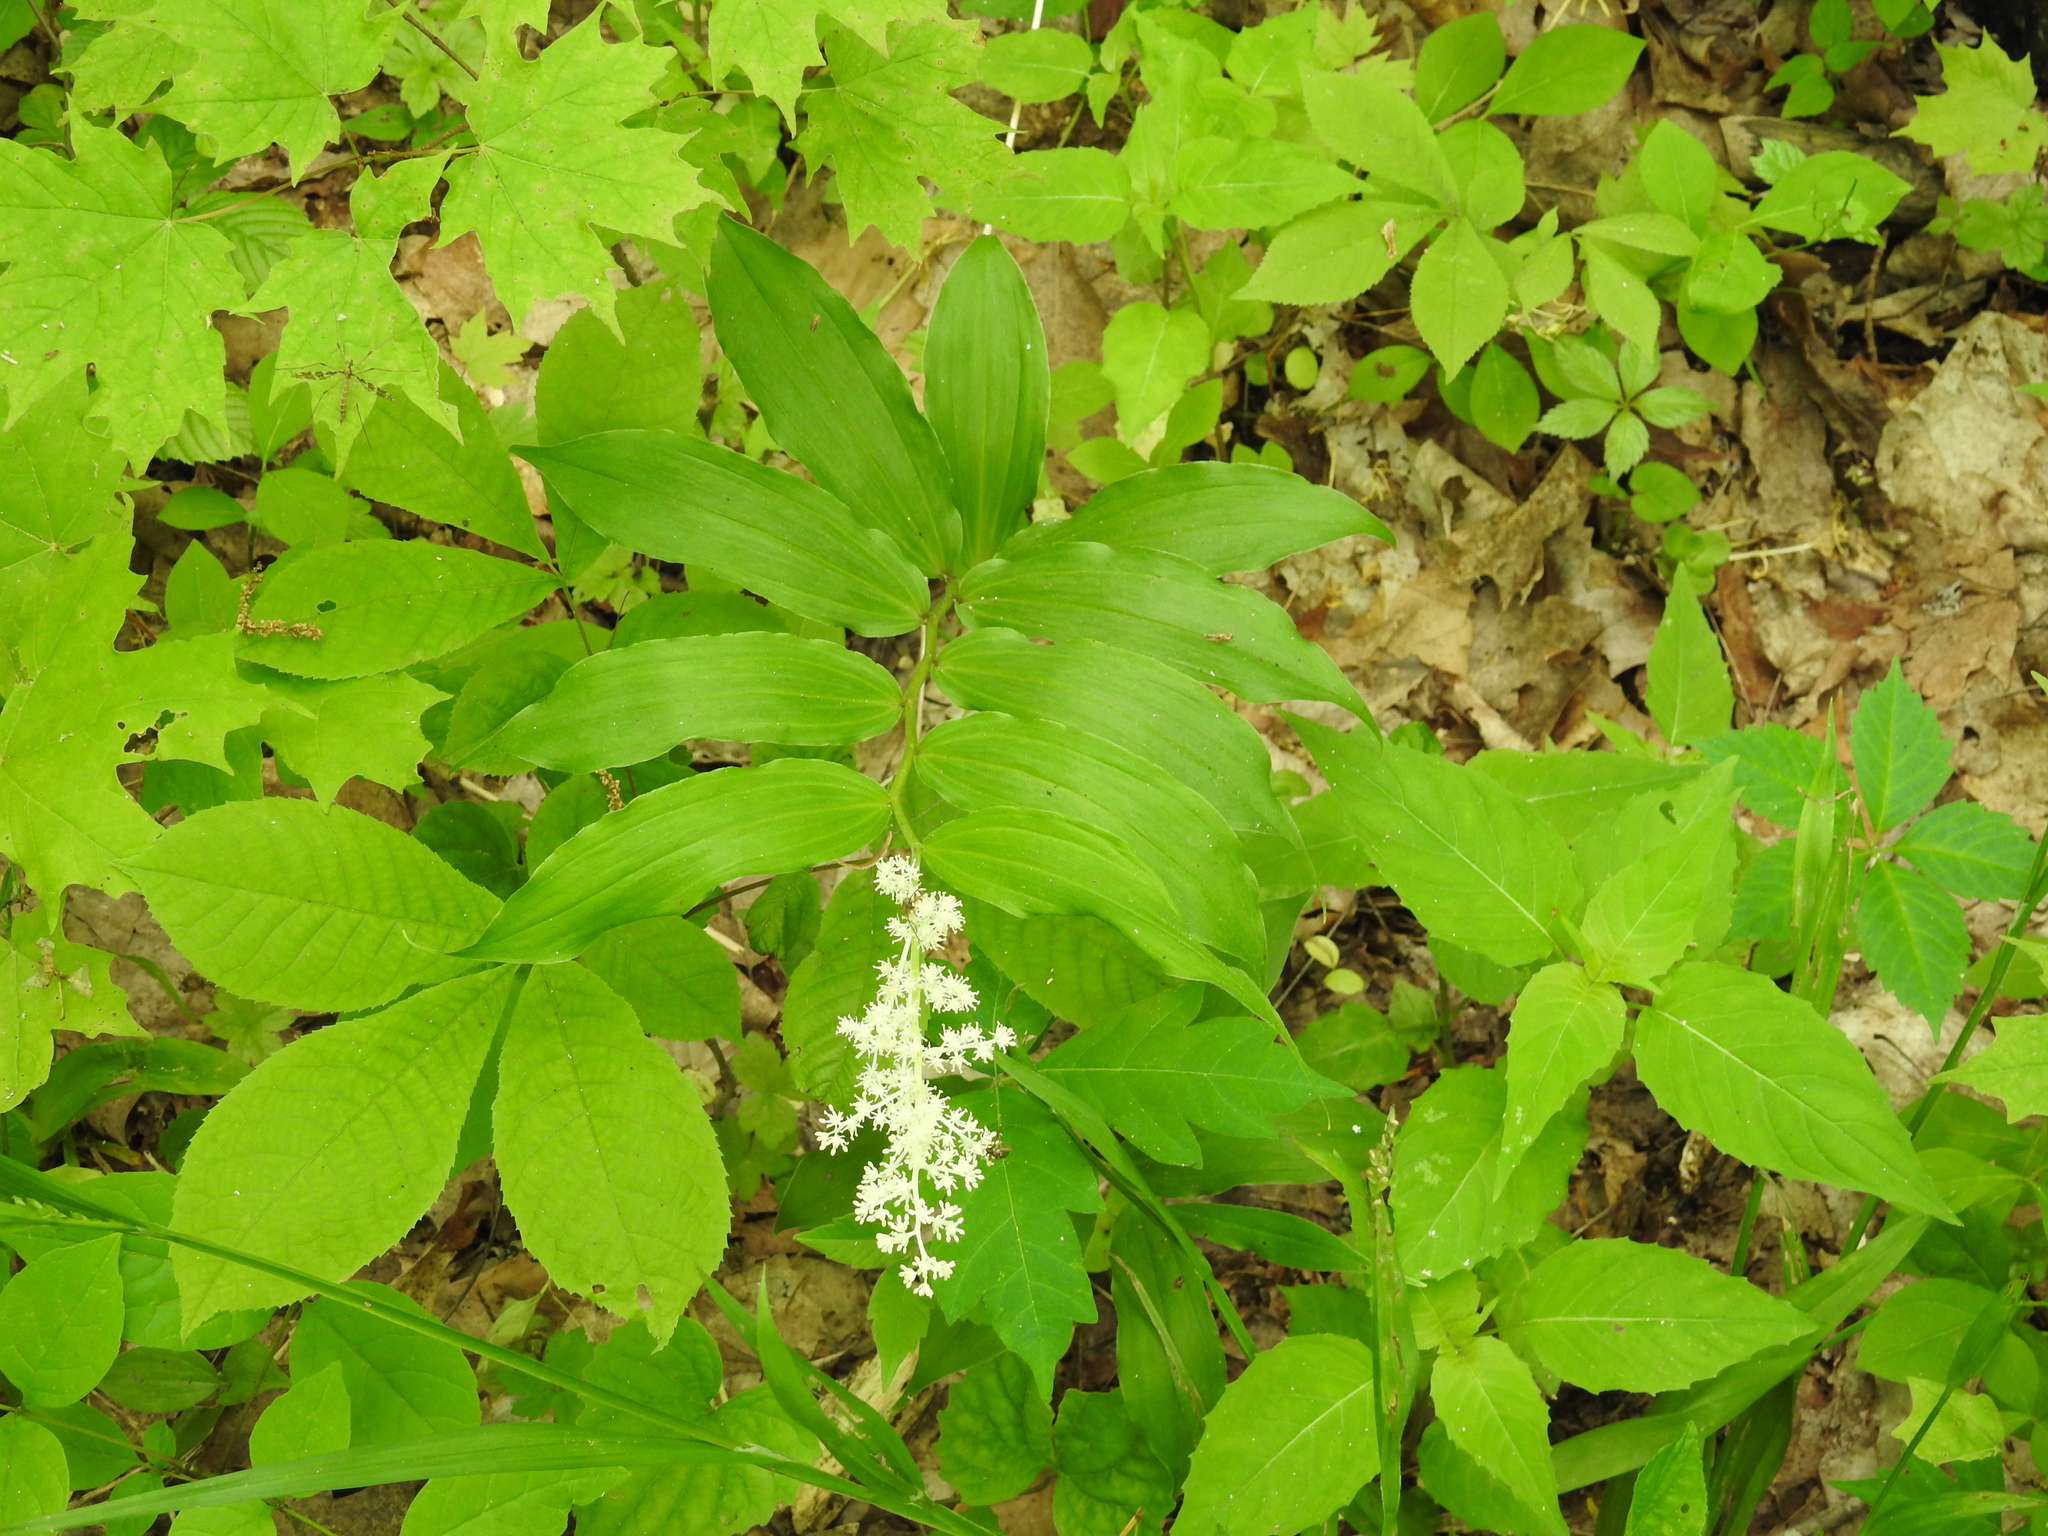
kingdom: Plantae
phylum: Tracheophyta
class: Liliopsida
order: Asparagales
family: Asparagaceae
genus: Maianthemum
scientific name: Maianthemum racemosum
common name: False spikenard
